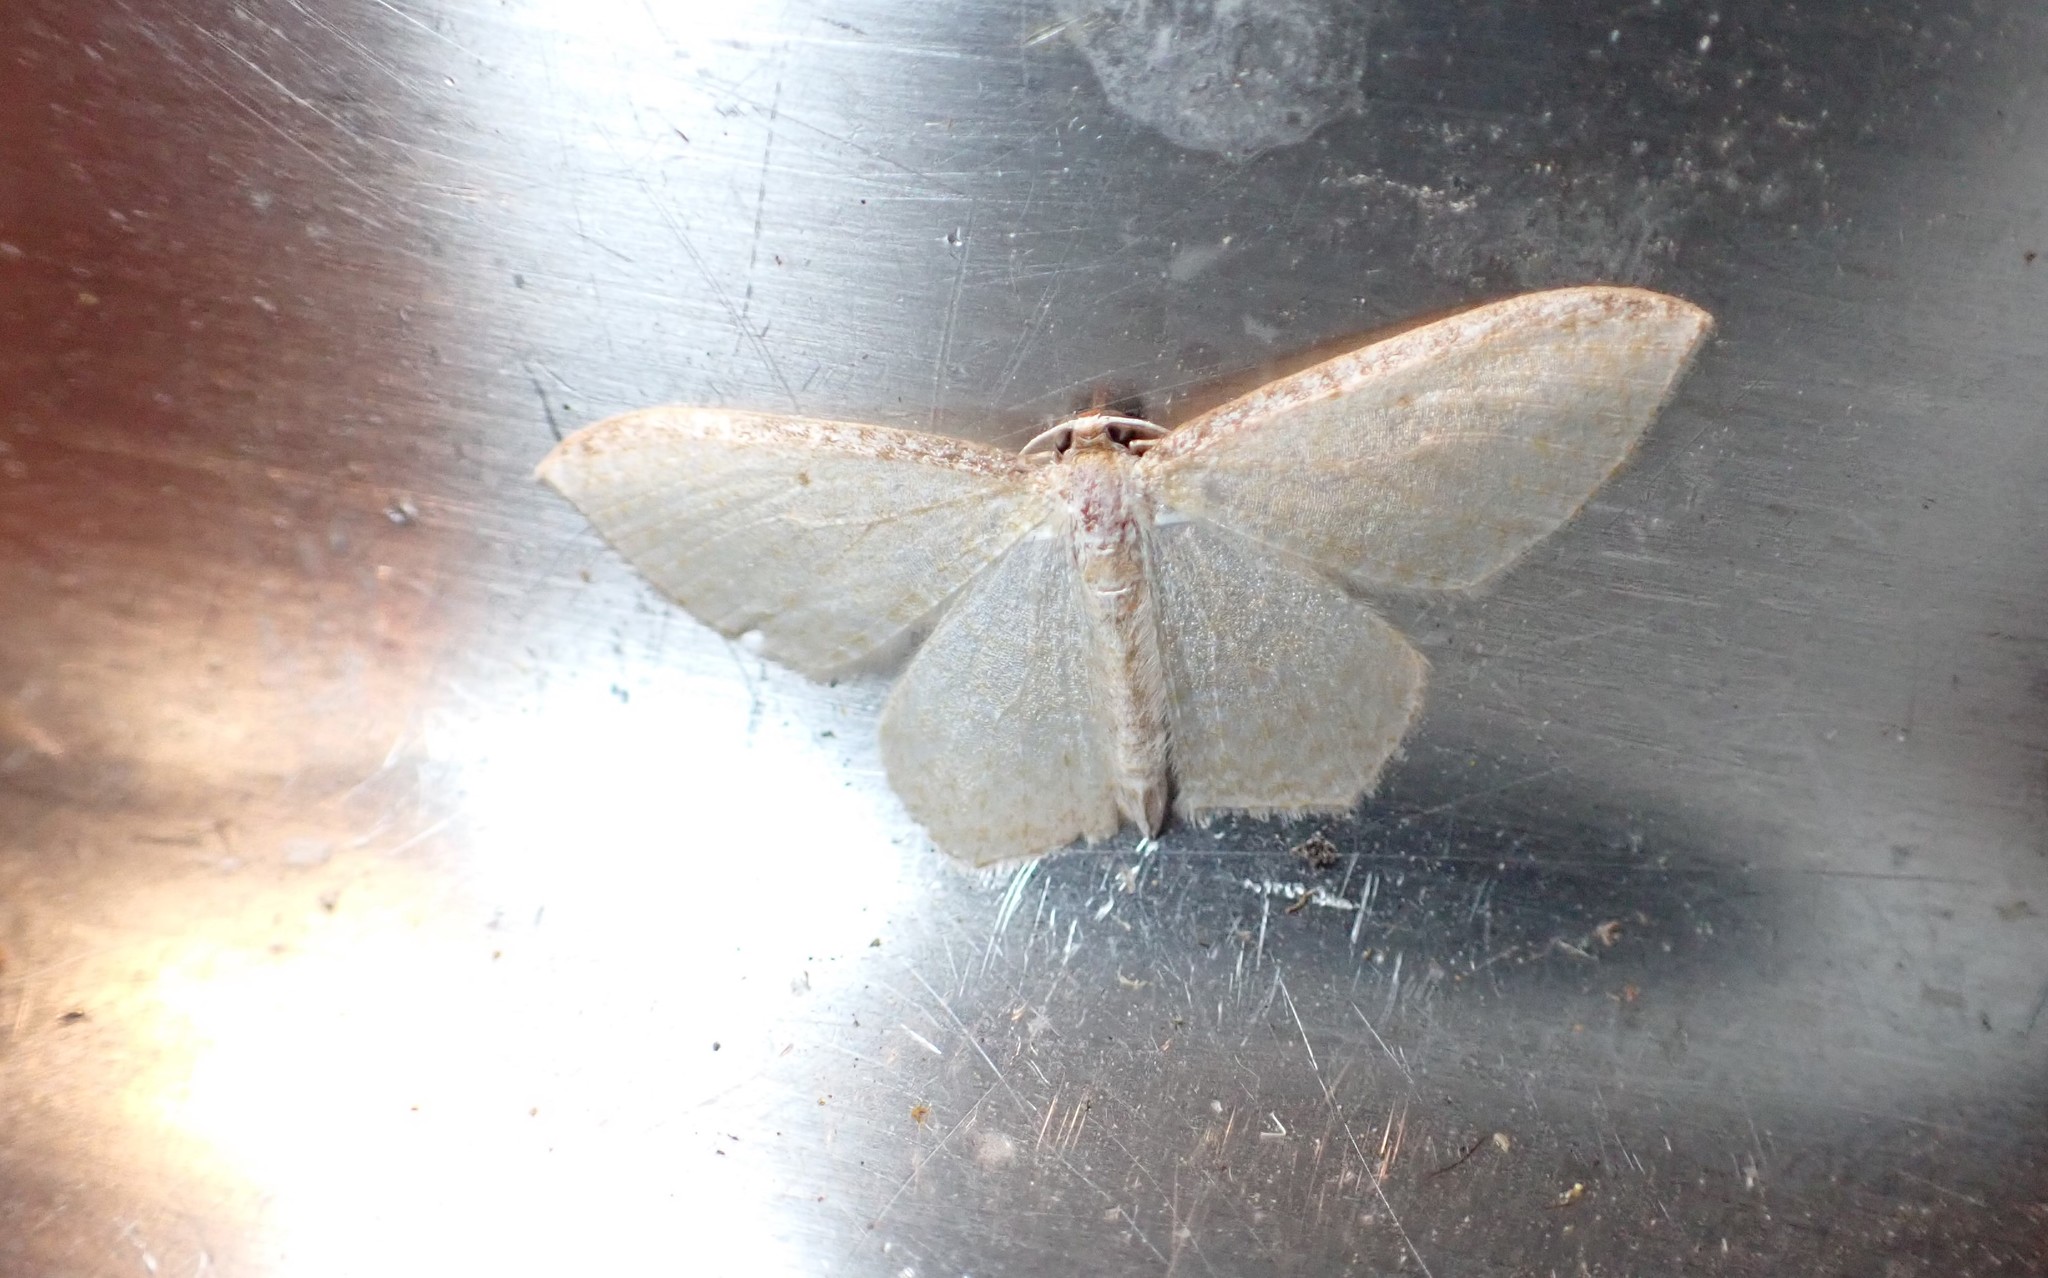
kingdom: Animalia
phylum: Arthropoda
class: Insecta
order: Lepidoptera
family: Geometridae
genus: Poecilasthena
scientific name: Poecilasthena pulchraria
